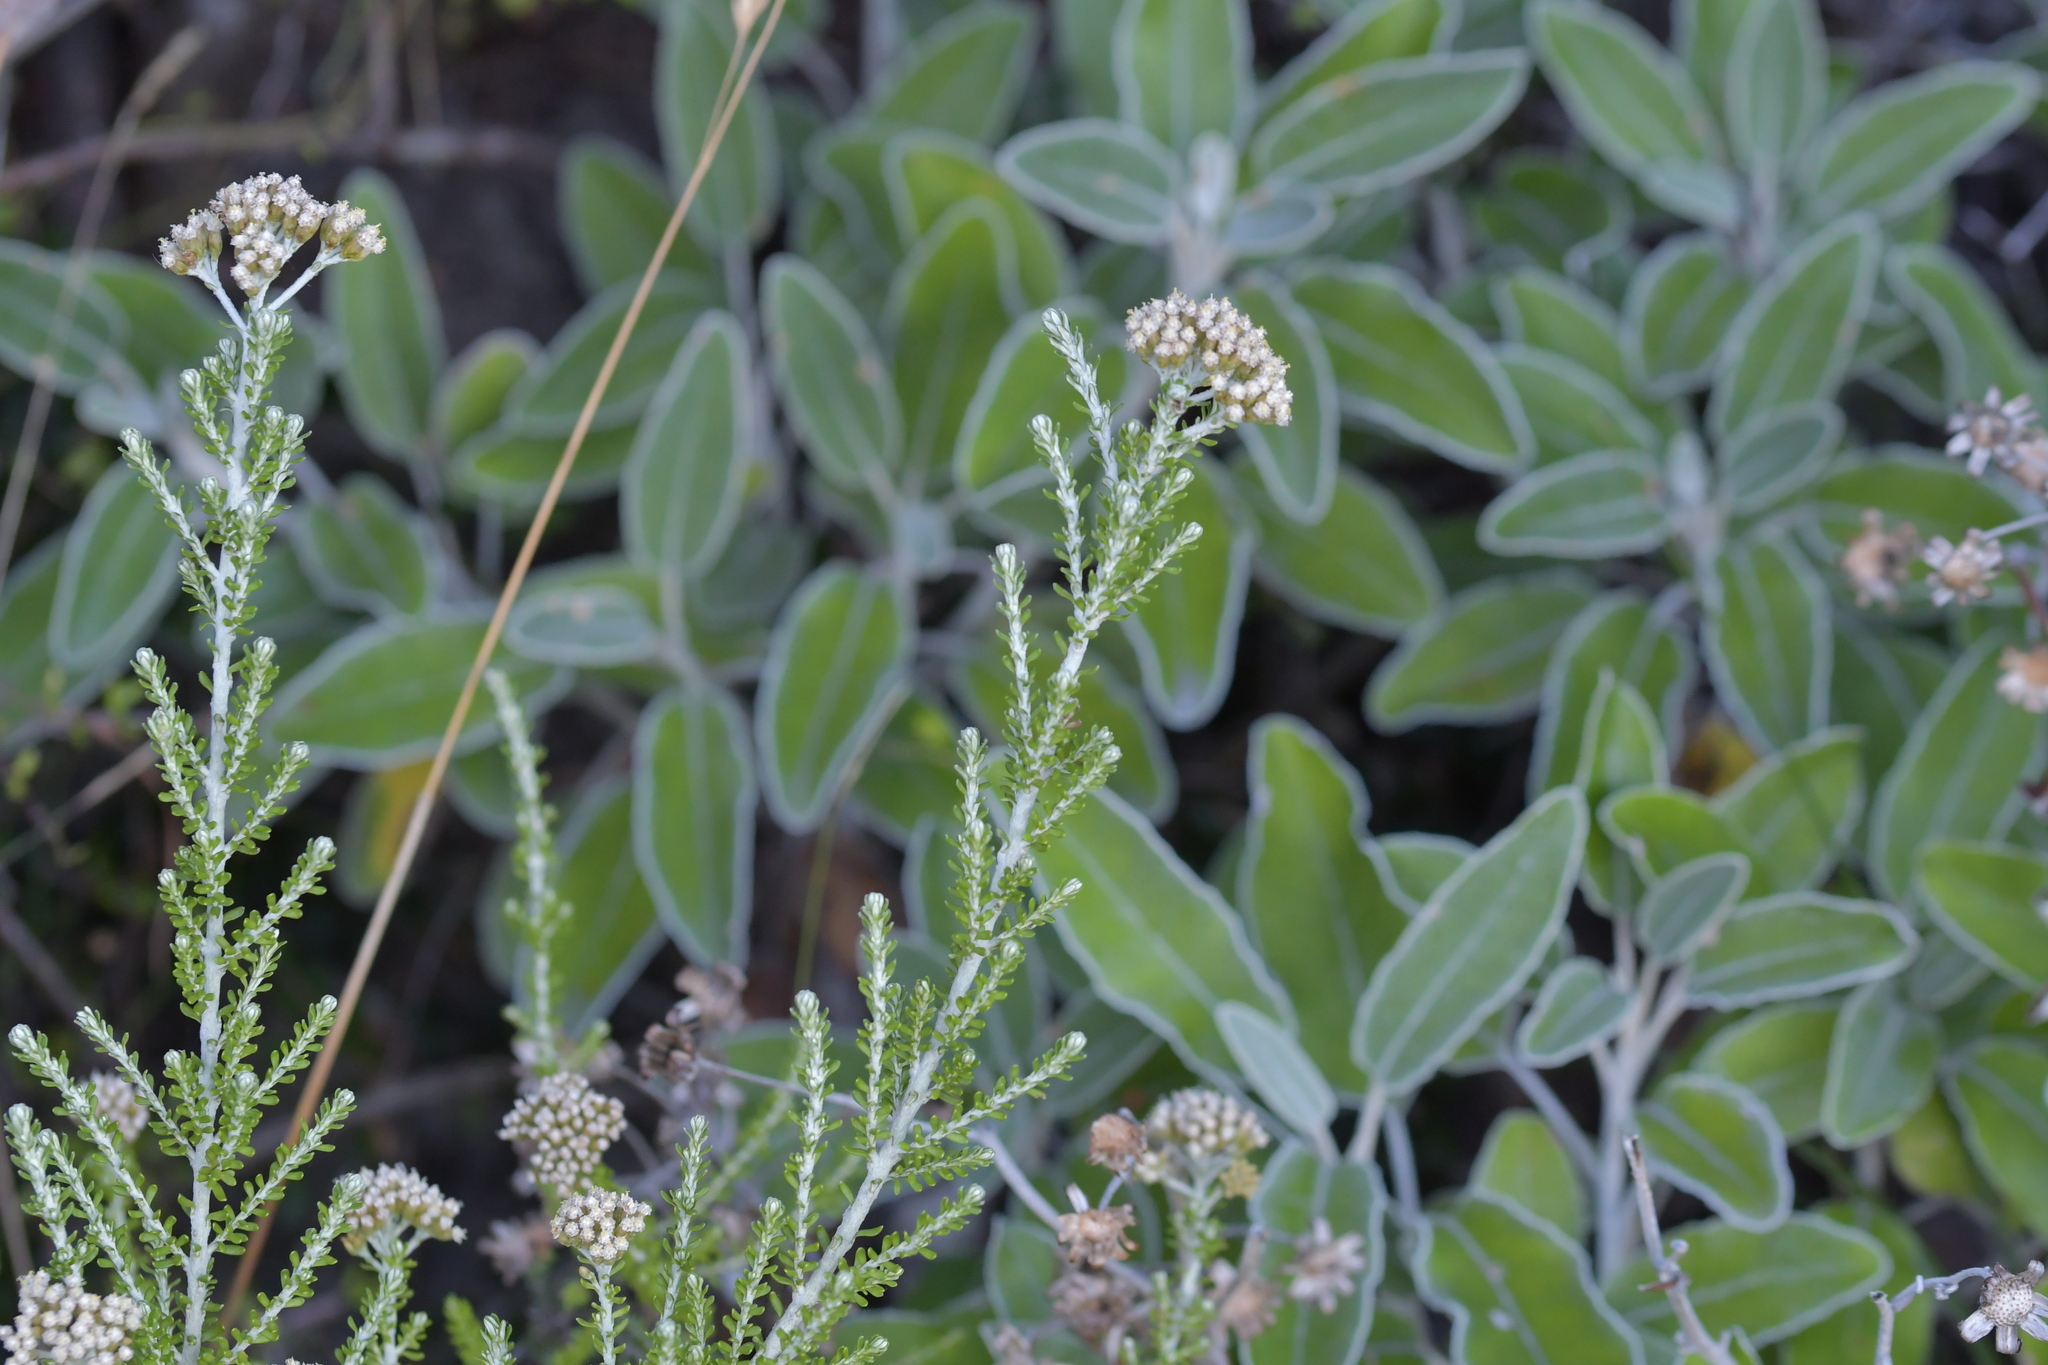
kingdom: Plantae
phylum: Tracheophyta
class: Magnoliopsida
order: Asterales
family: Asteraceae
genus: Ozothamnus
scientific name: Ozothamnus leptophyllus
